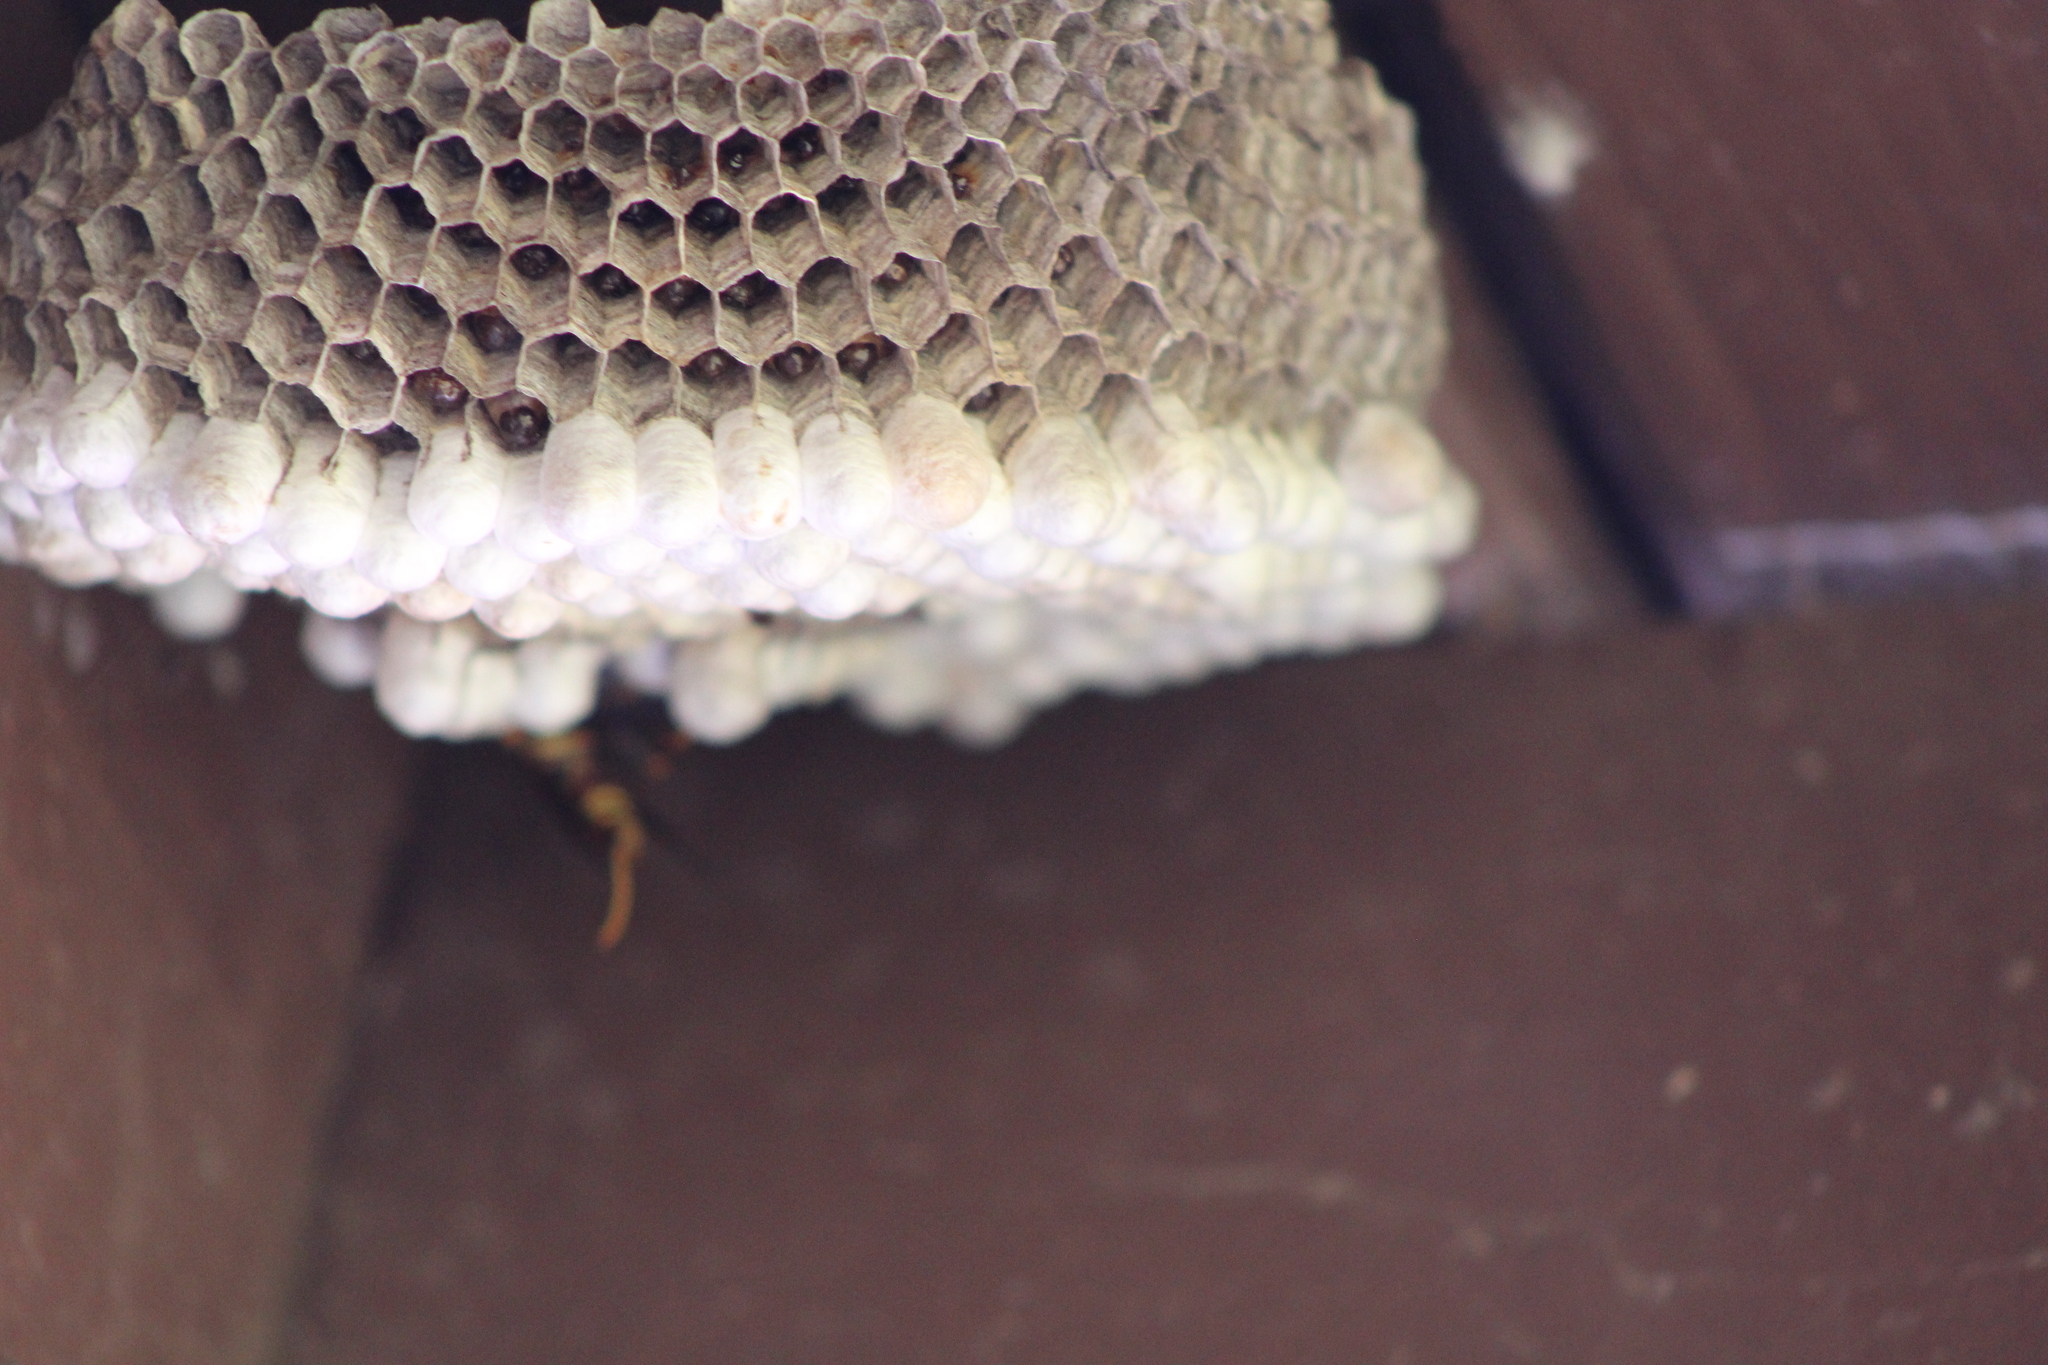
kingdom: Animalia
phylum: Arthropoda
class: Insecta
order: Hymenoptera
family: Eumenidae
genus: Polistes
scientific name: Polistes exclamans
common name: Paper wasp
